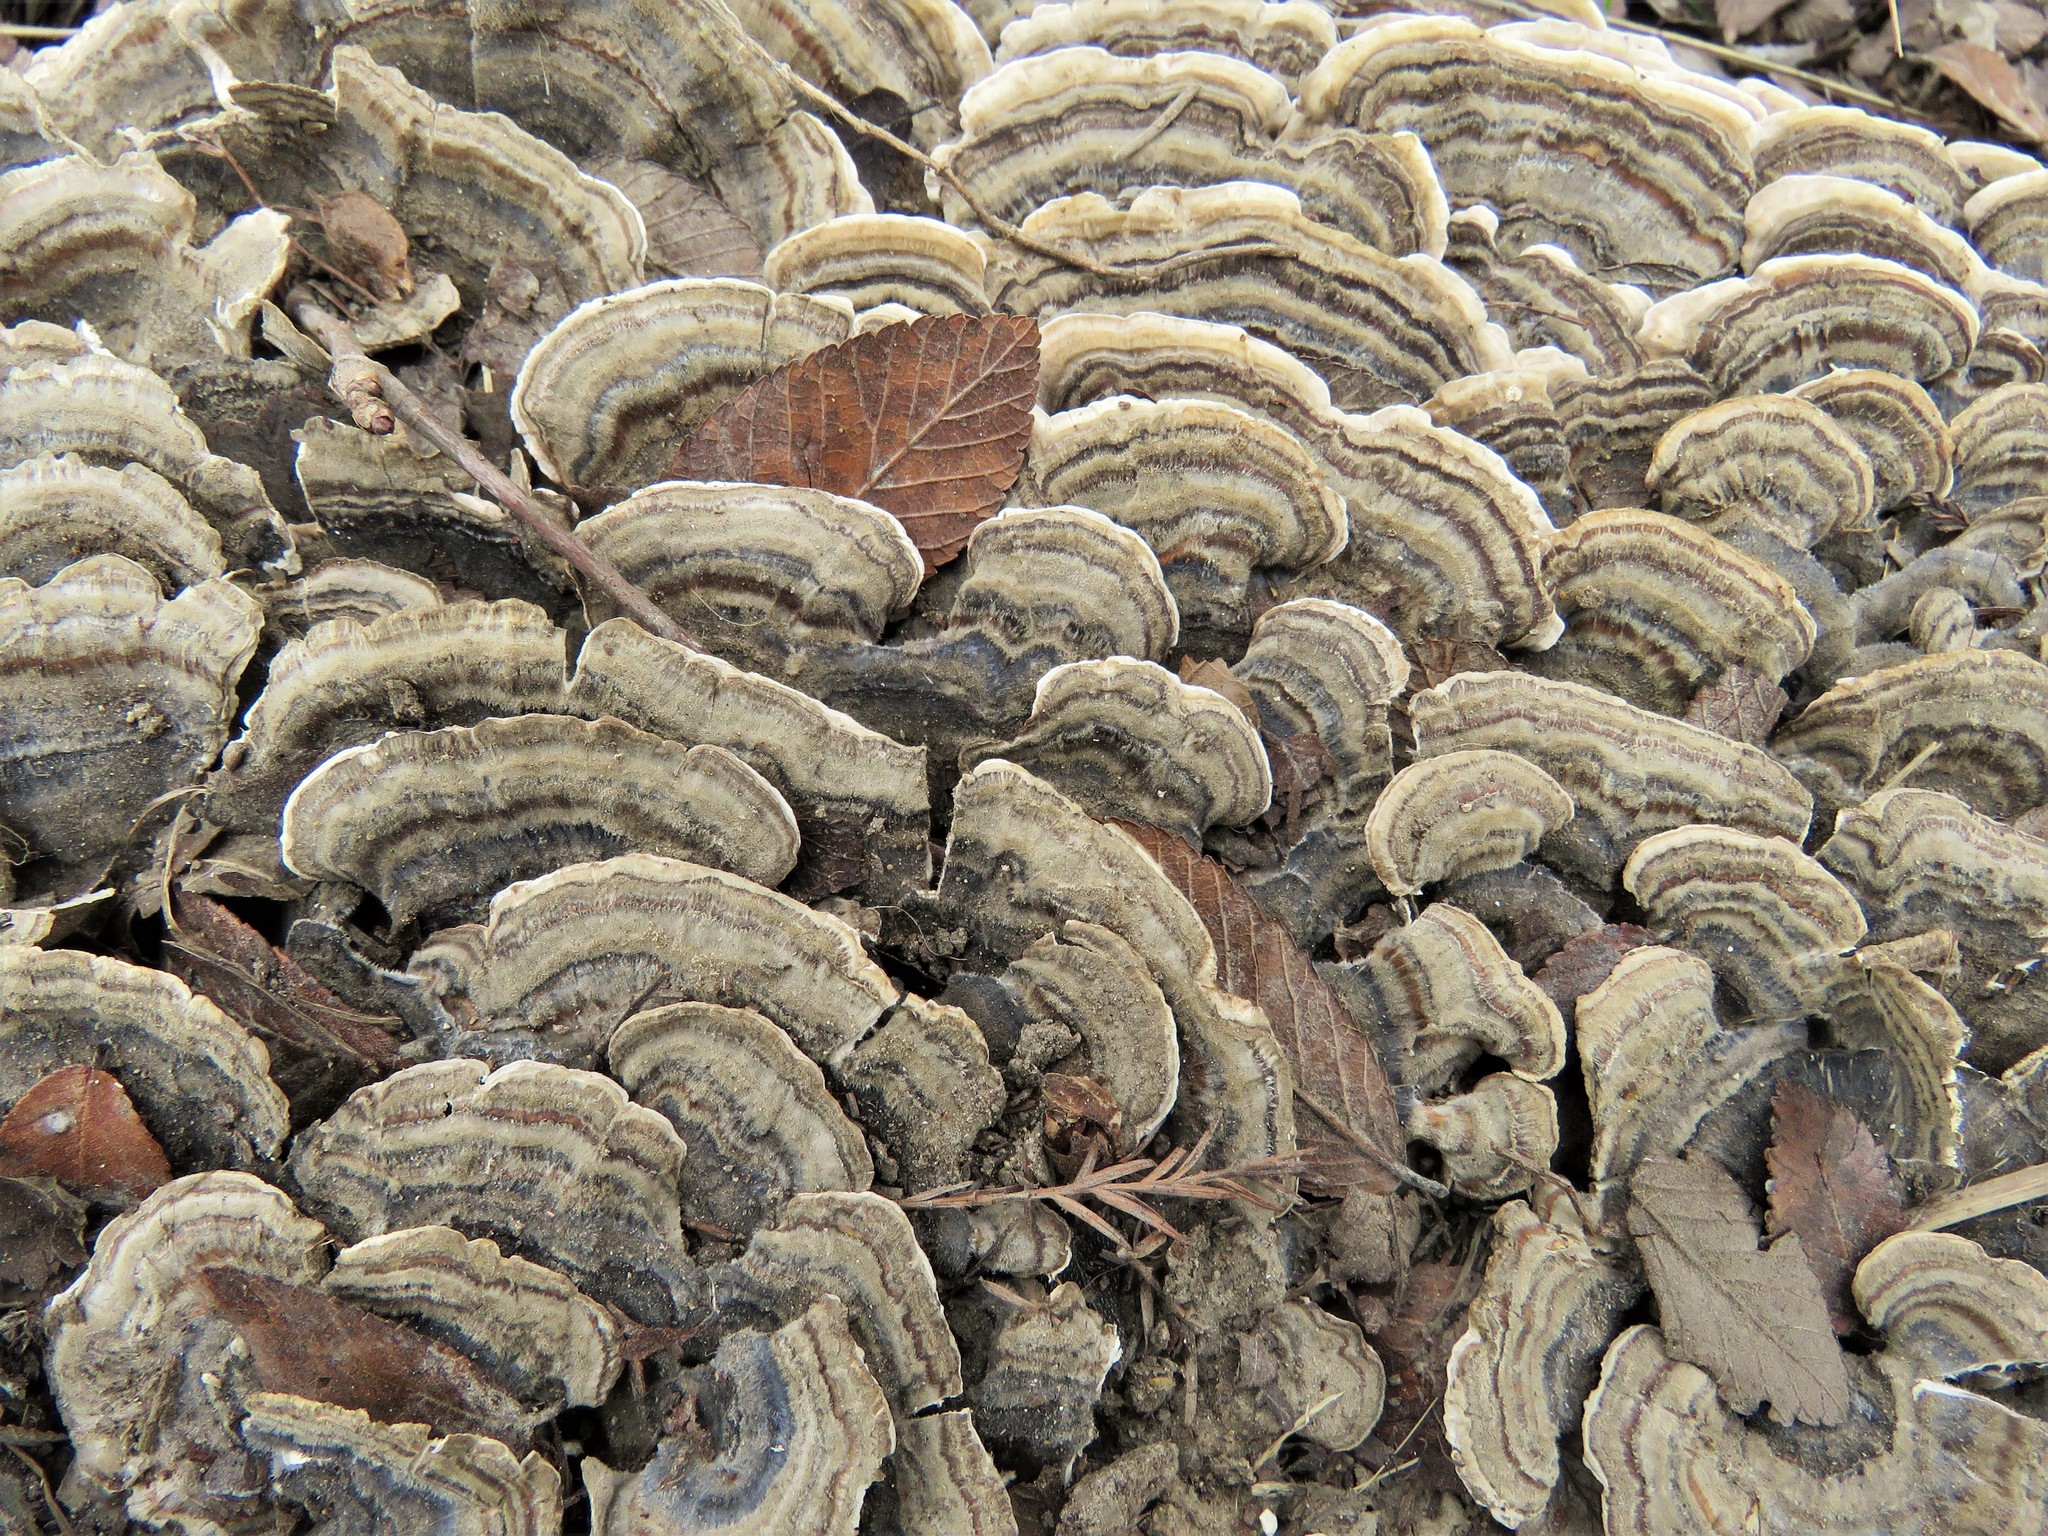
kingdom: Fungi
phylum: Basidiomycota
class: Agaricomycetes
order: Polyporales
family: Polyporaceae
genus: Trametes
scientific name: Trametes versicolor
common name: Turkeytail
